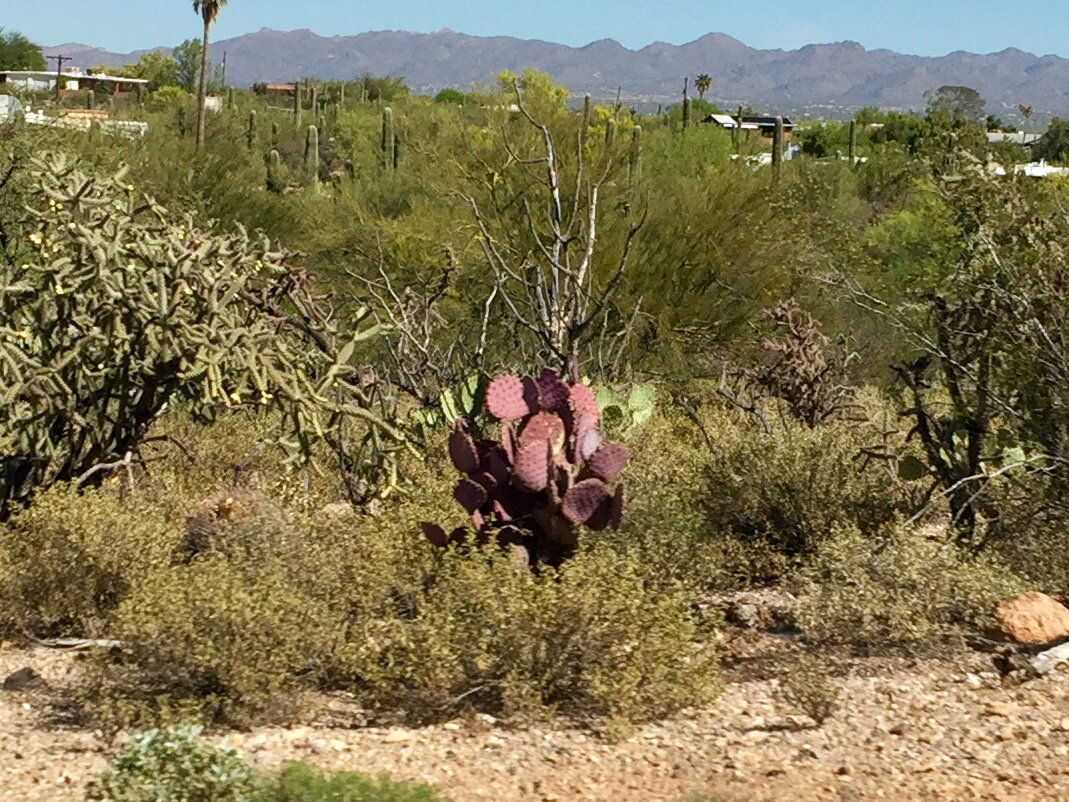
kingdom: Plantae
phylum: Tracheophyta
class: Magnoliopsida
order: Caryophyllales
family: Cactaceae
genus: Opuntia
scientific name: Opuntia gosseliniana
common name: Violet prickly-pear
